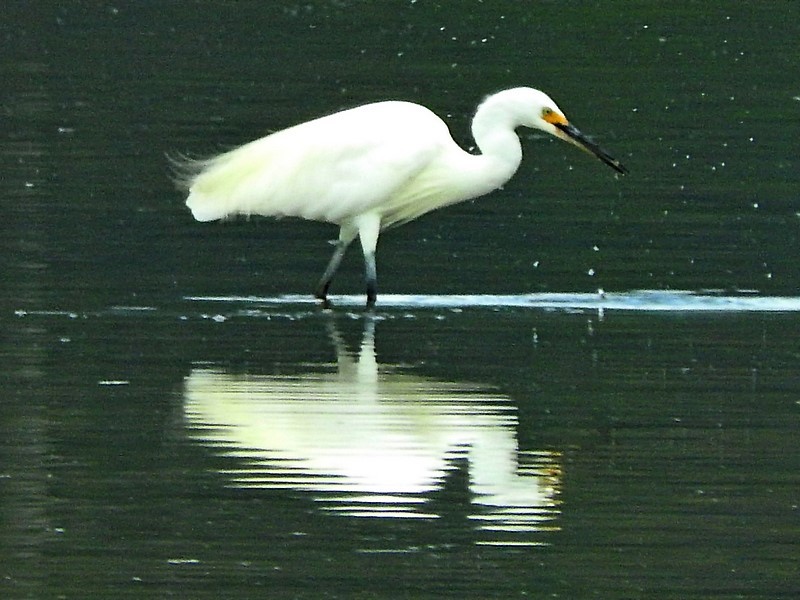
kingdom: Animalia
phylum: Chordata
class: Aves
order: Pelecaniformes
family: Ardeidae
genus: Egretta
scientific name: Egretta garzetta
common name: Little egret
